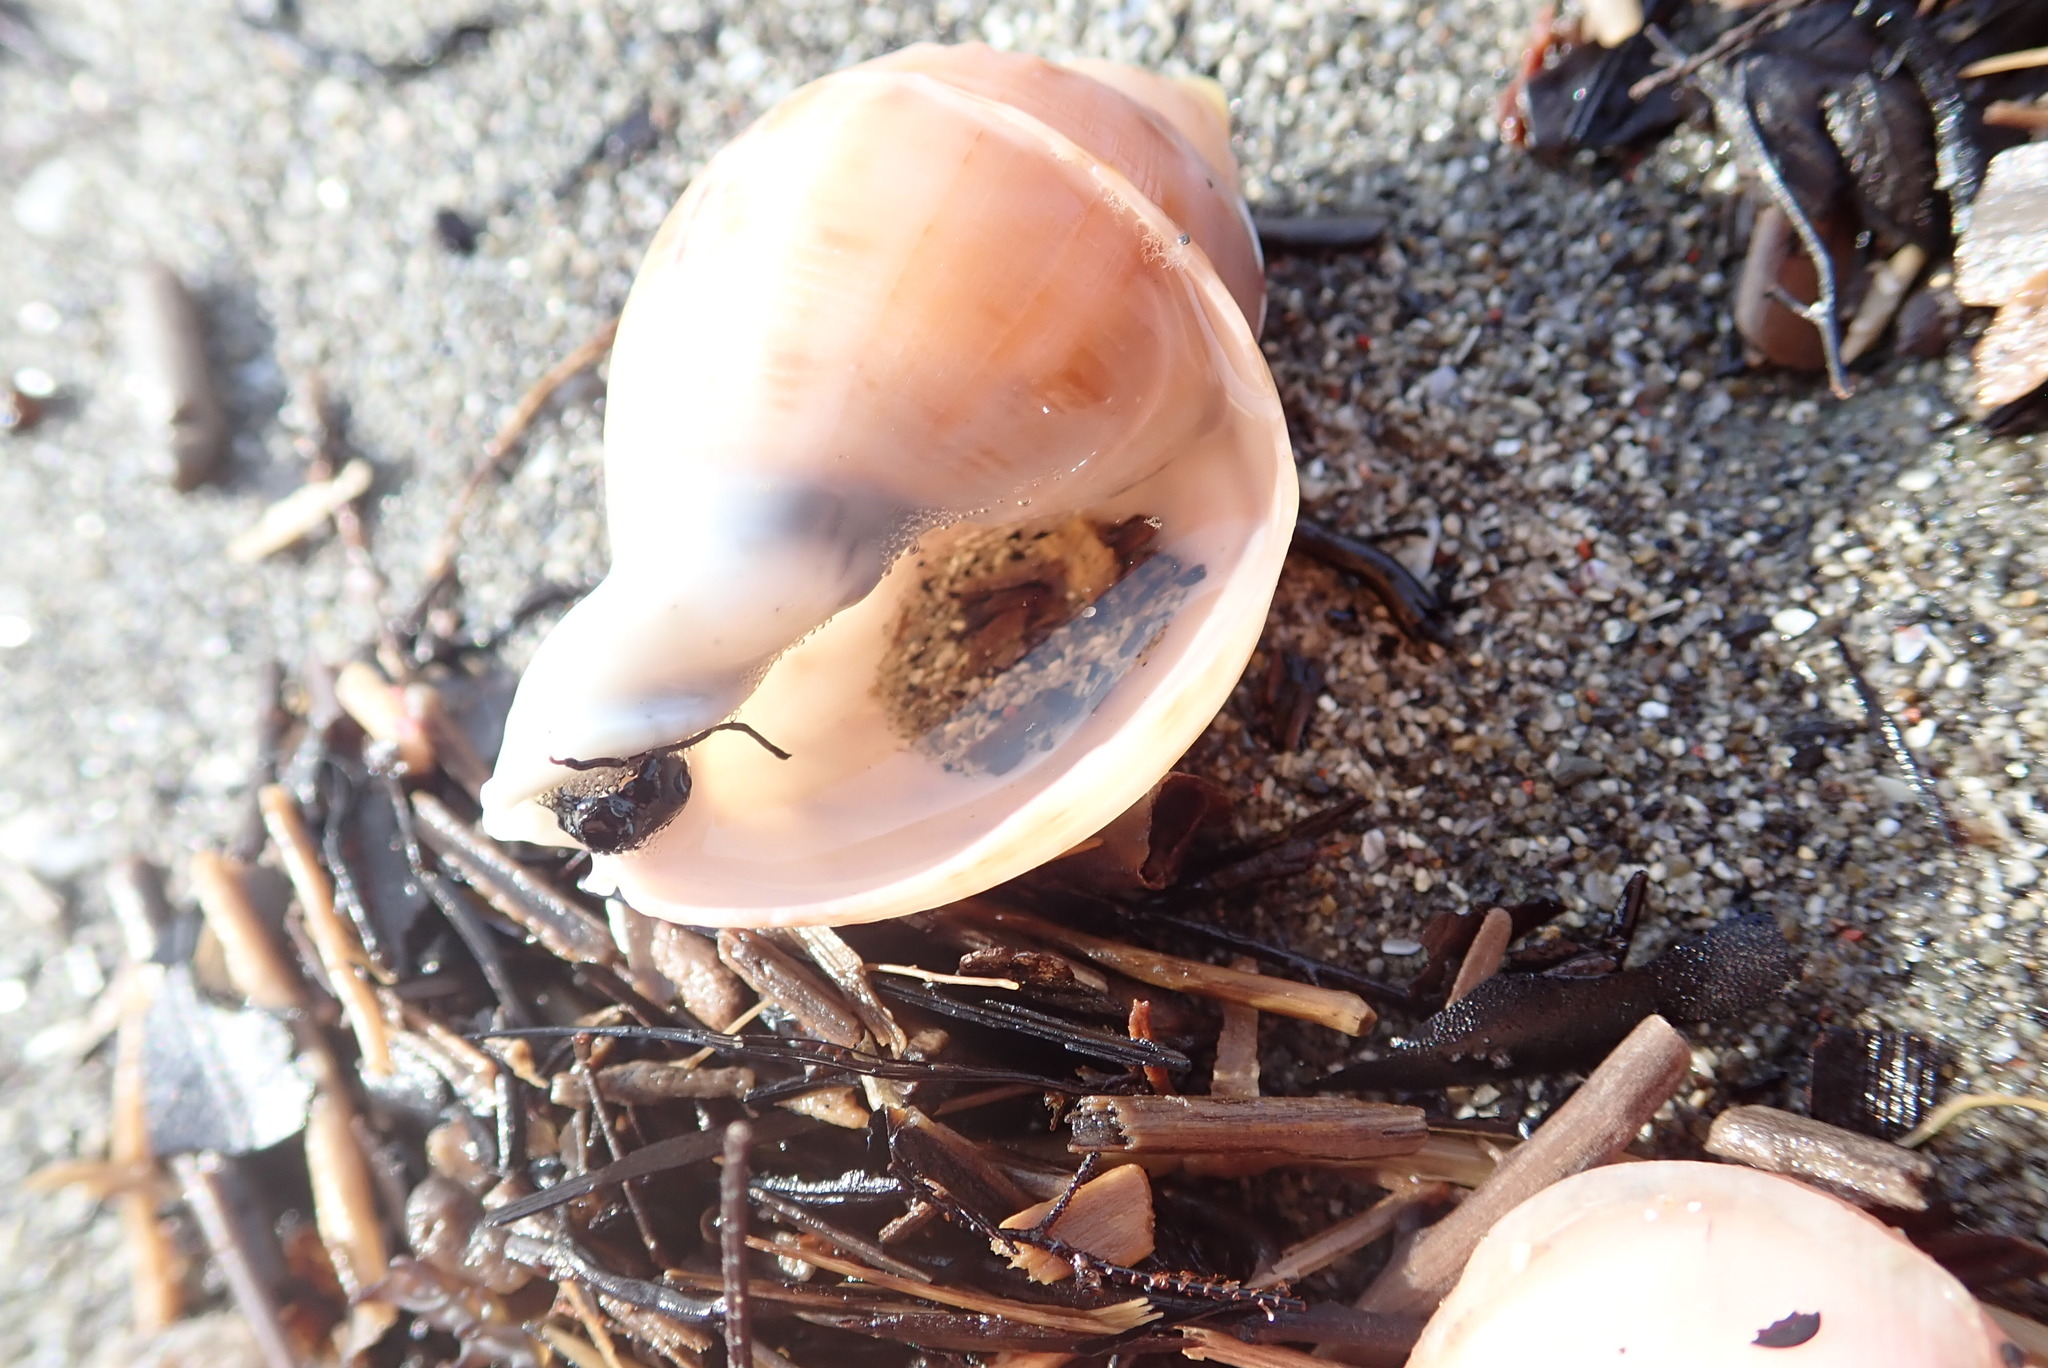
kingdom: Animalia
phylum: Mollusca
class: Gastropoda
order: Littorinimorpha
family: Cassidae
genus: Semicassis
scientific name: Semicassis pyrum
